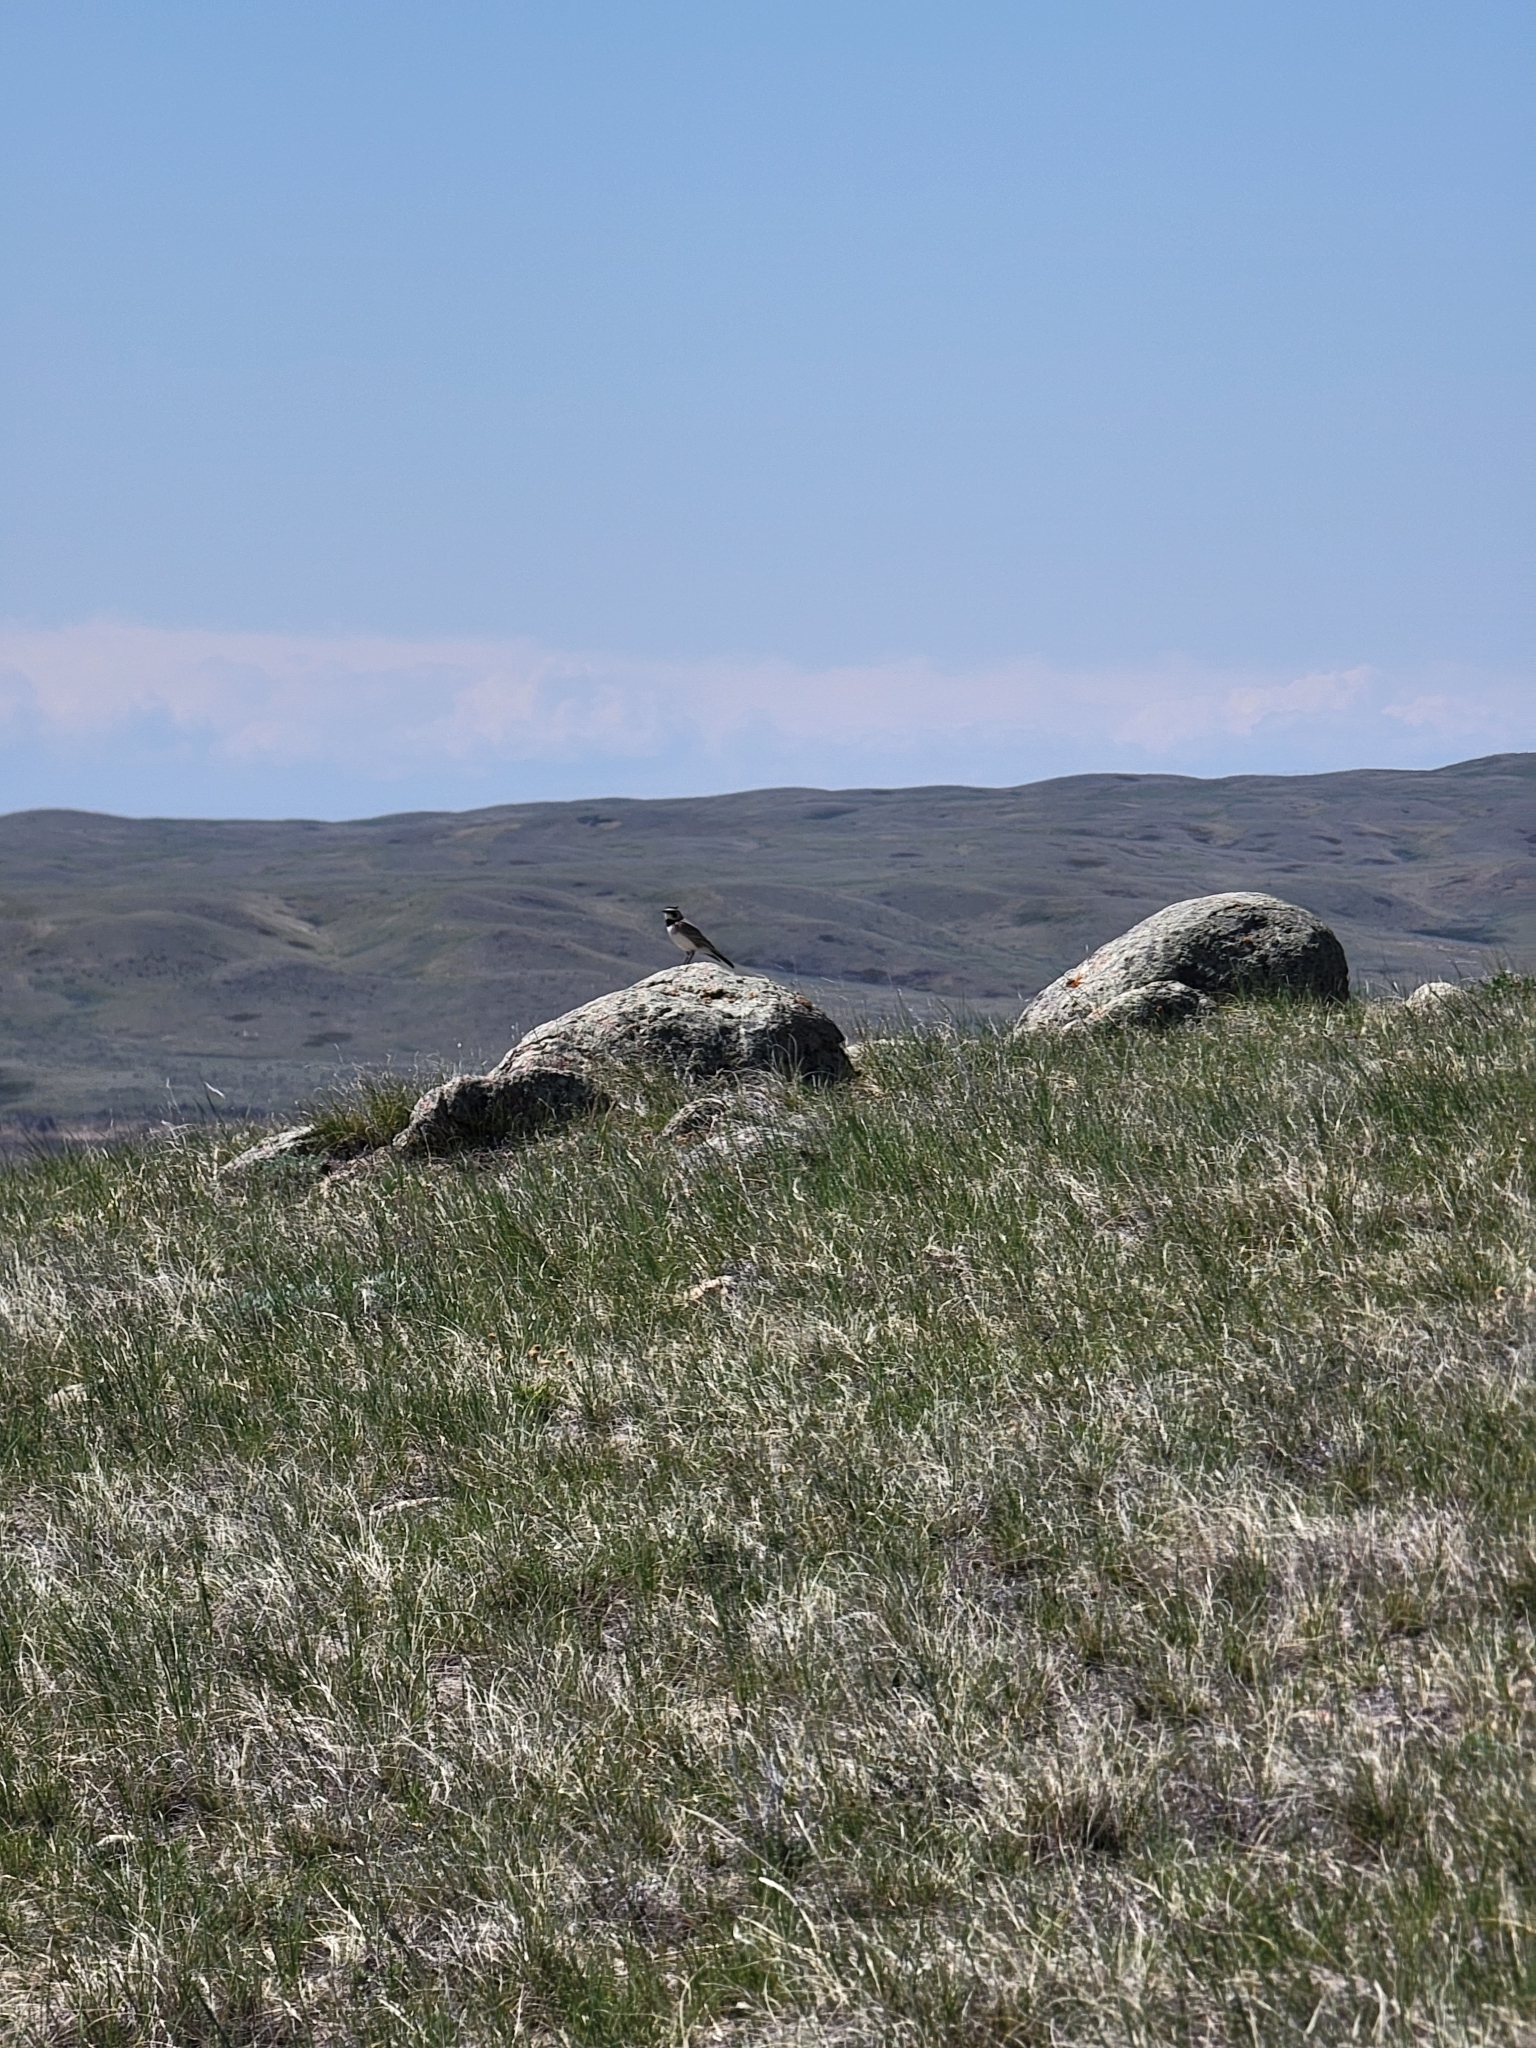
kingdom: Animalia
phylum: Chordata
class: Aves
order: Passeriformes
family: Alaudidae
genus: Eremophila
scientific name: Eremophila alpestris
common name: Horned lark
